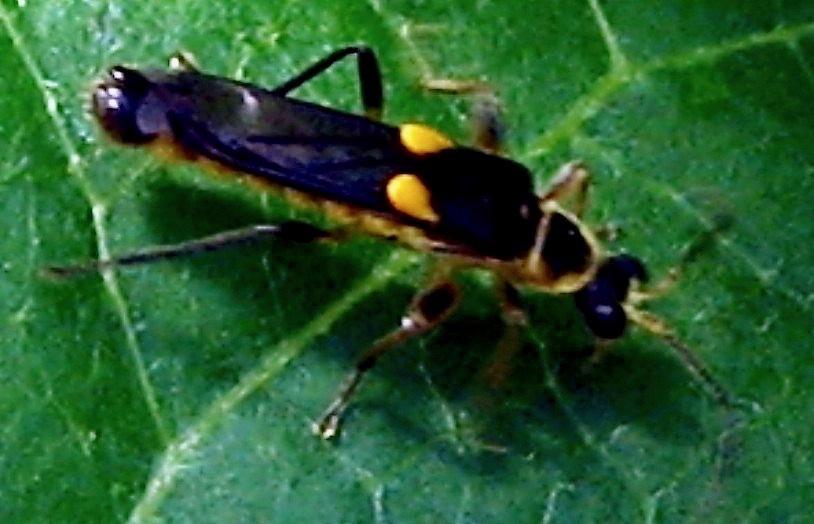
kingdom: Animalia
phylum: Arthropoda
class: Insecta
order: Coleoptera
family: Cantharidae
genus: Trypherus
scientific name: Trypherus frisoni
